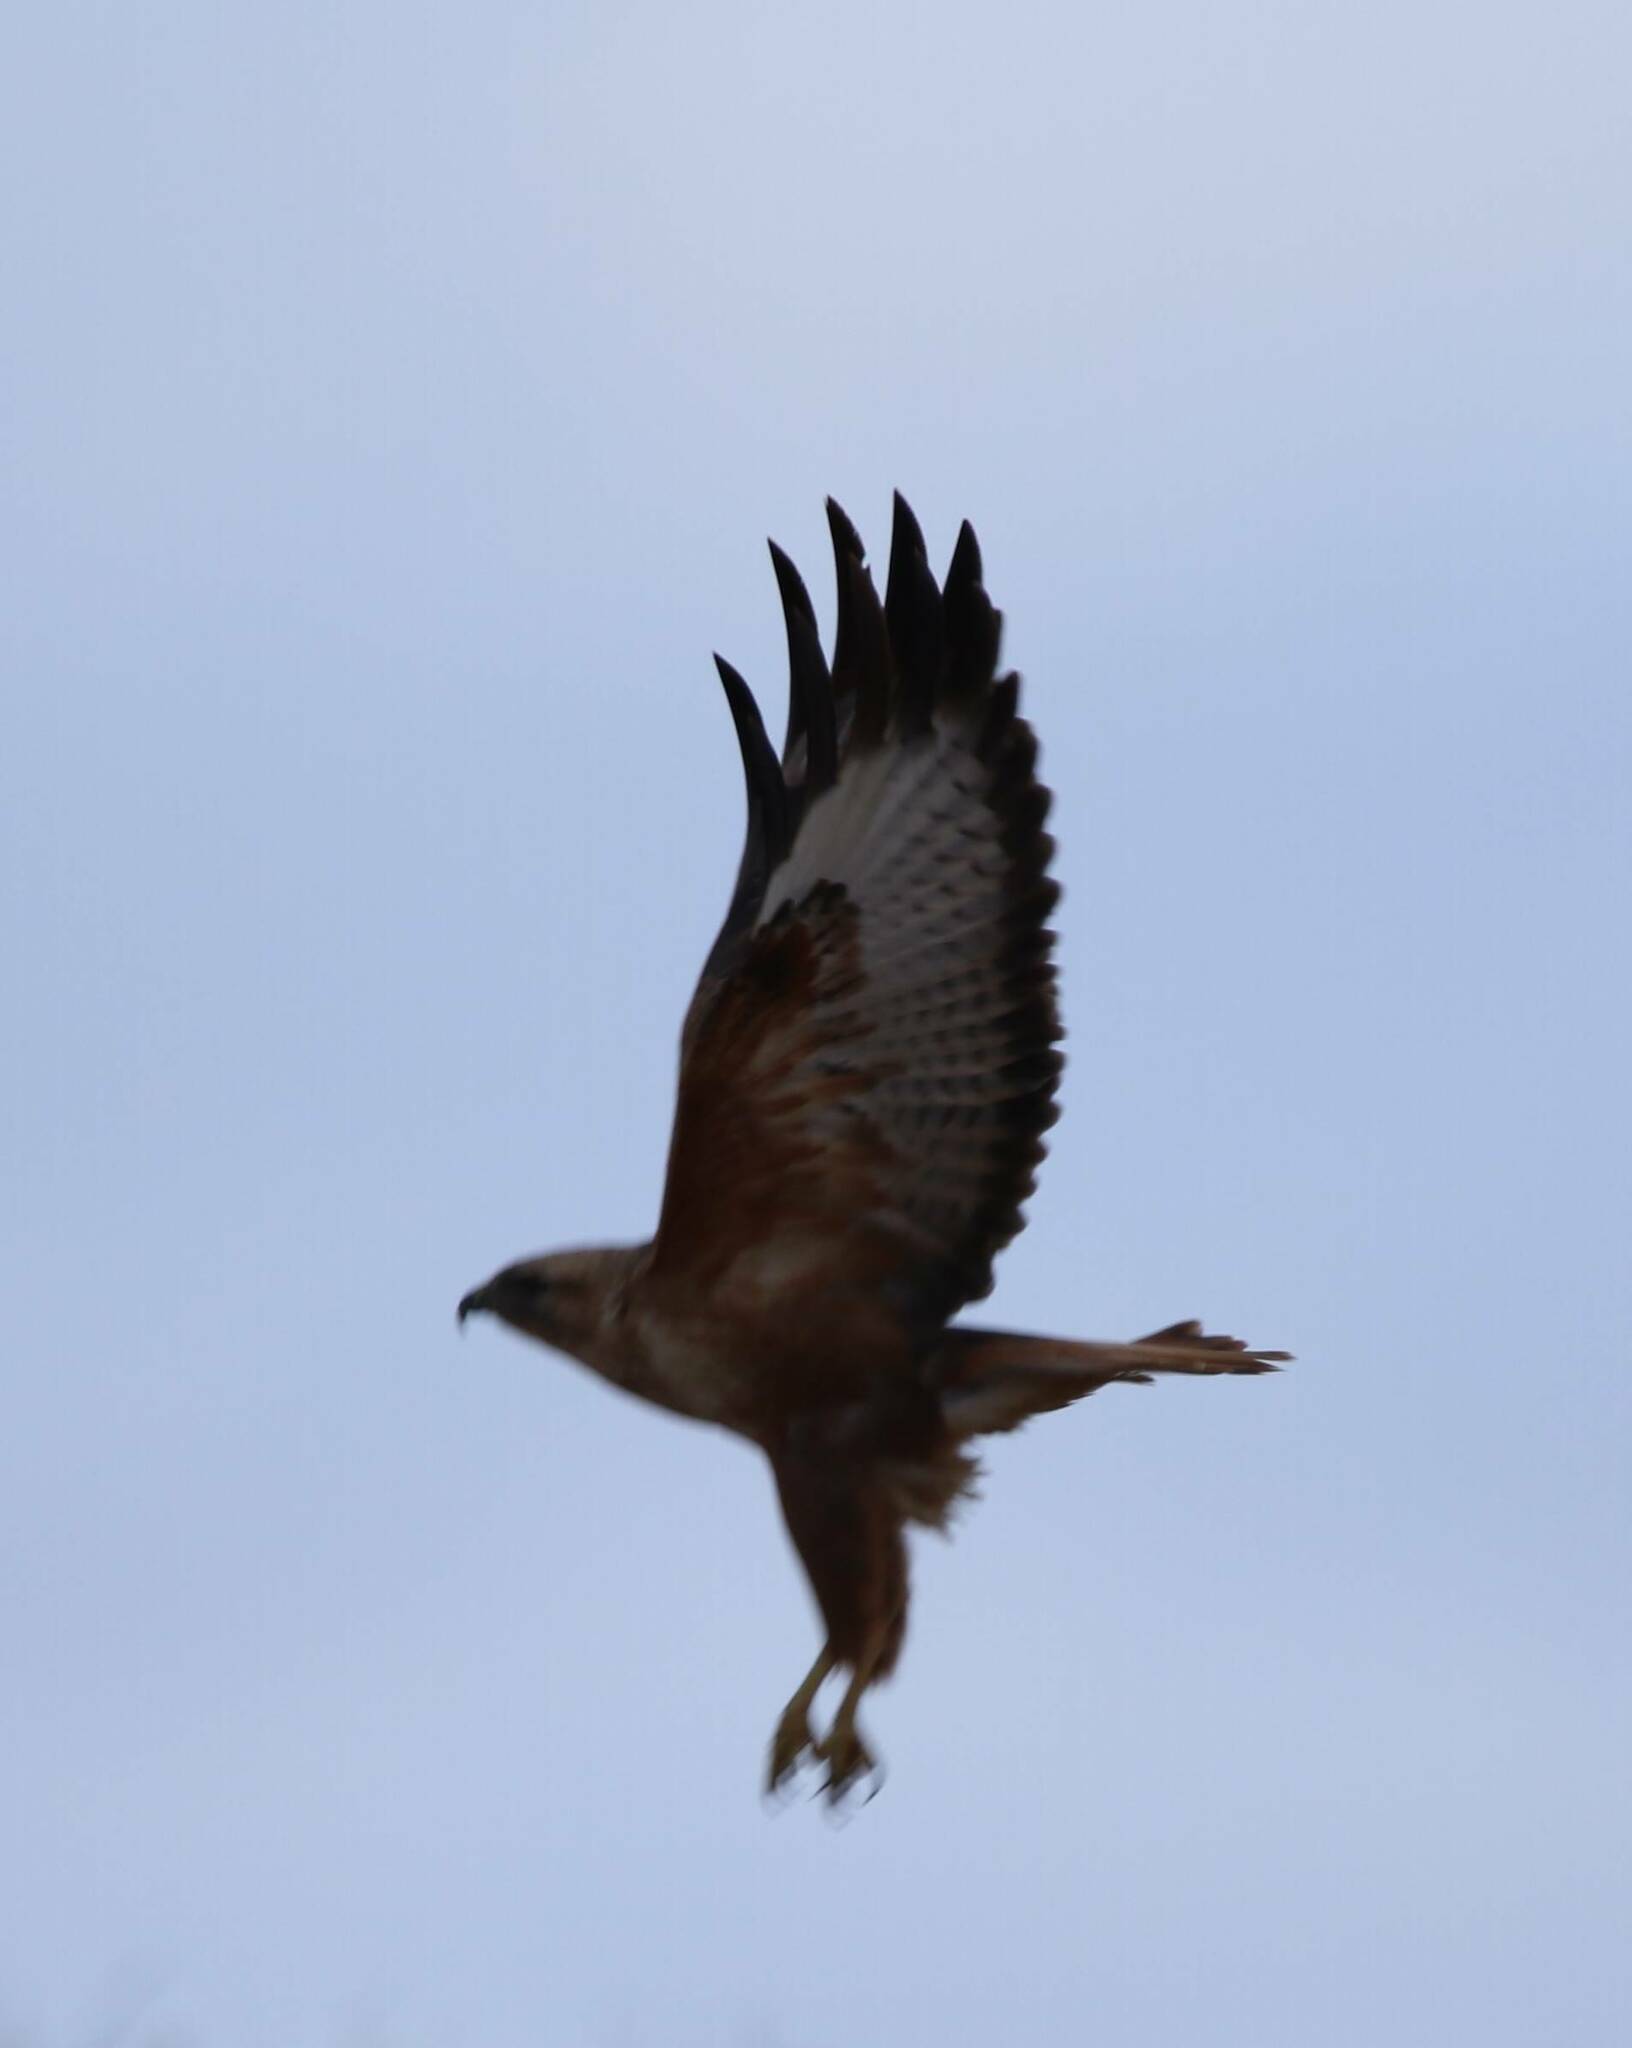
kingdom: Animalia
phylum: Chordata
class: Aves
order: Accipitriformes
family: Accipitridae
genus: Buteo
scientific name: Buteo rufinus
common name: Long-legged buzzard
